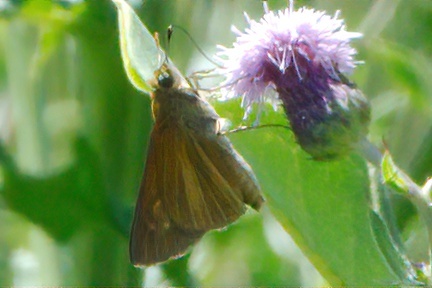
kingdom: Animalia
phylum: Arthropoda
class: Insecta
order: Lepidoptera
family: Hesperiidae
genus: Euphyes
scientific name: Euphyes dion
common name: Dion skipper
